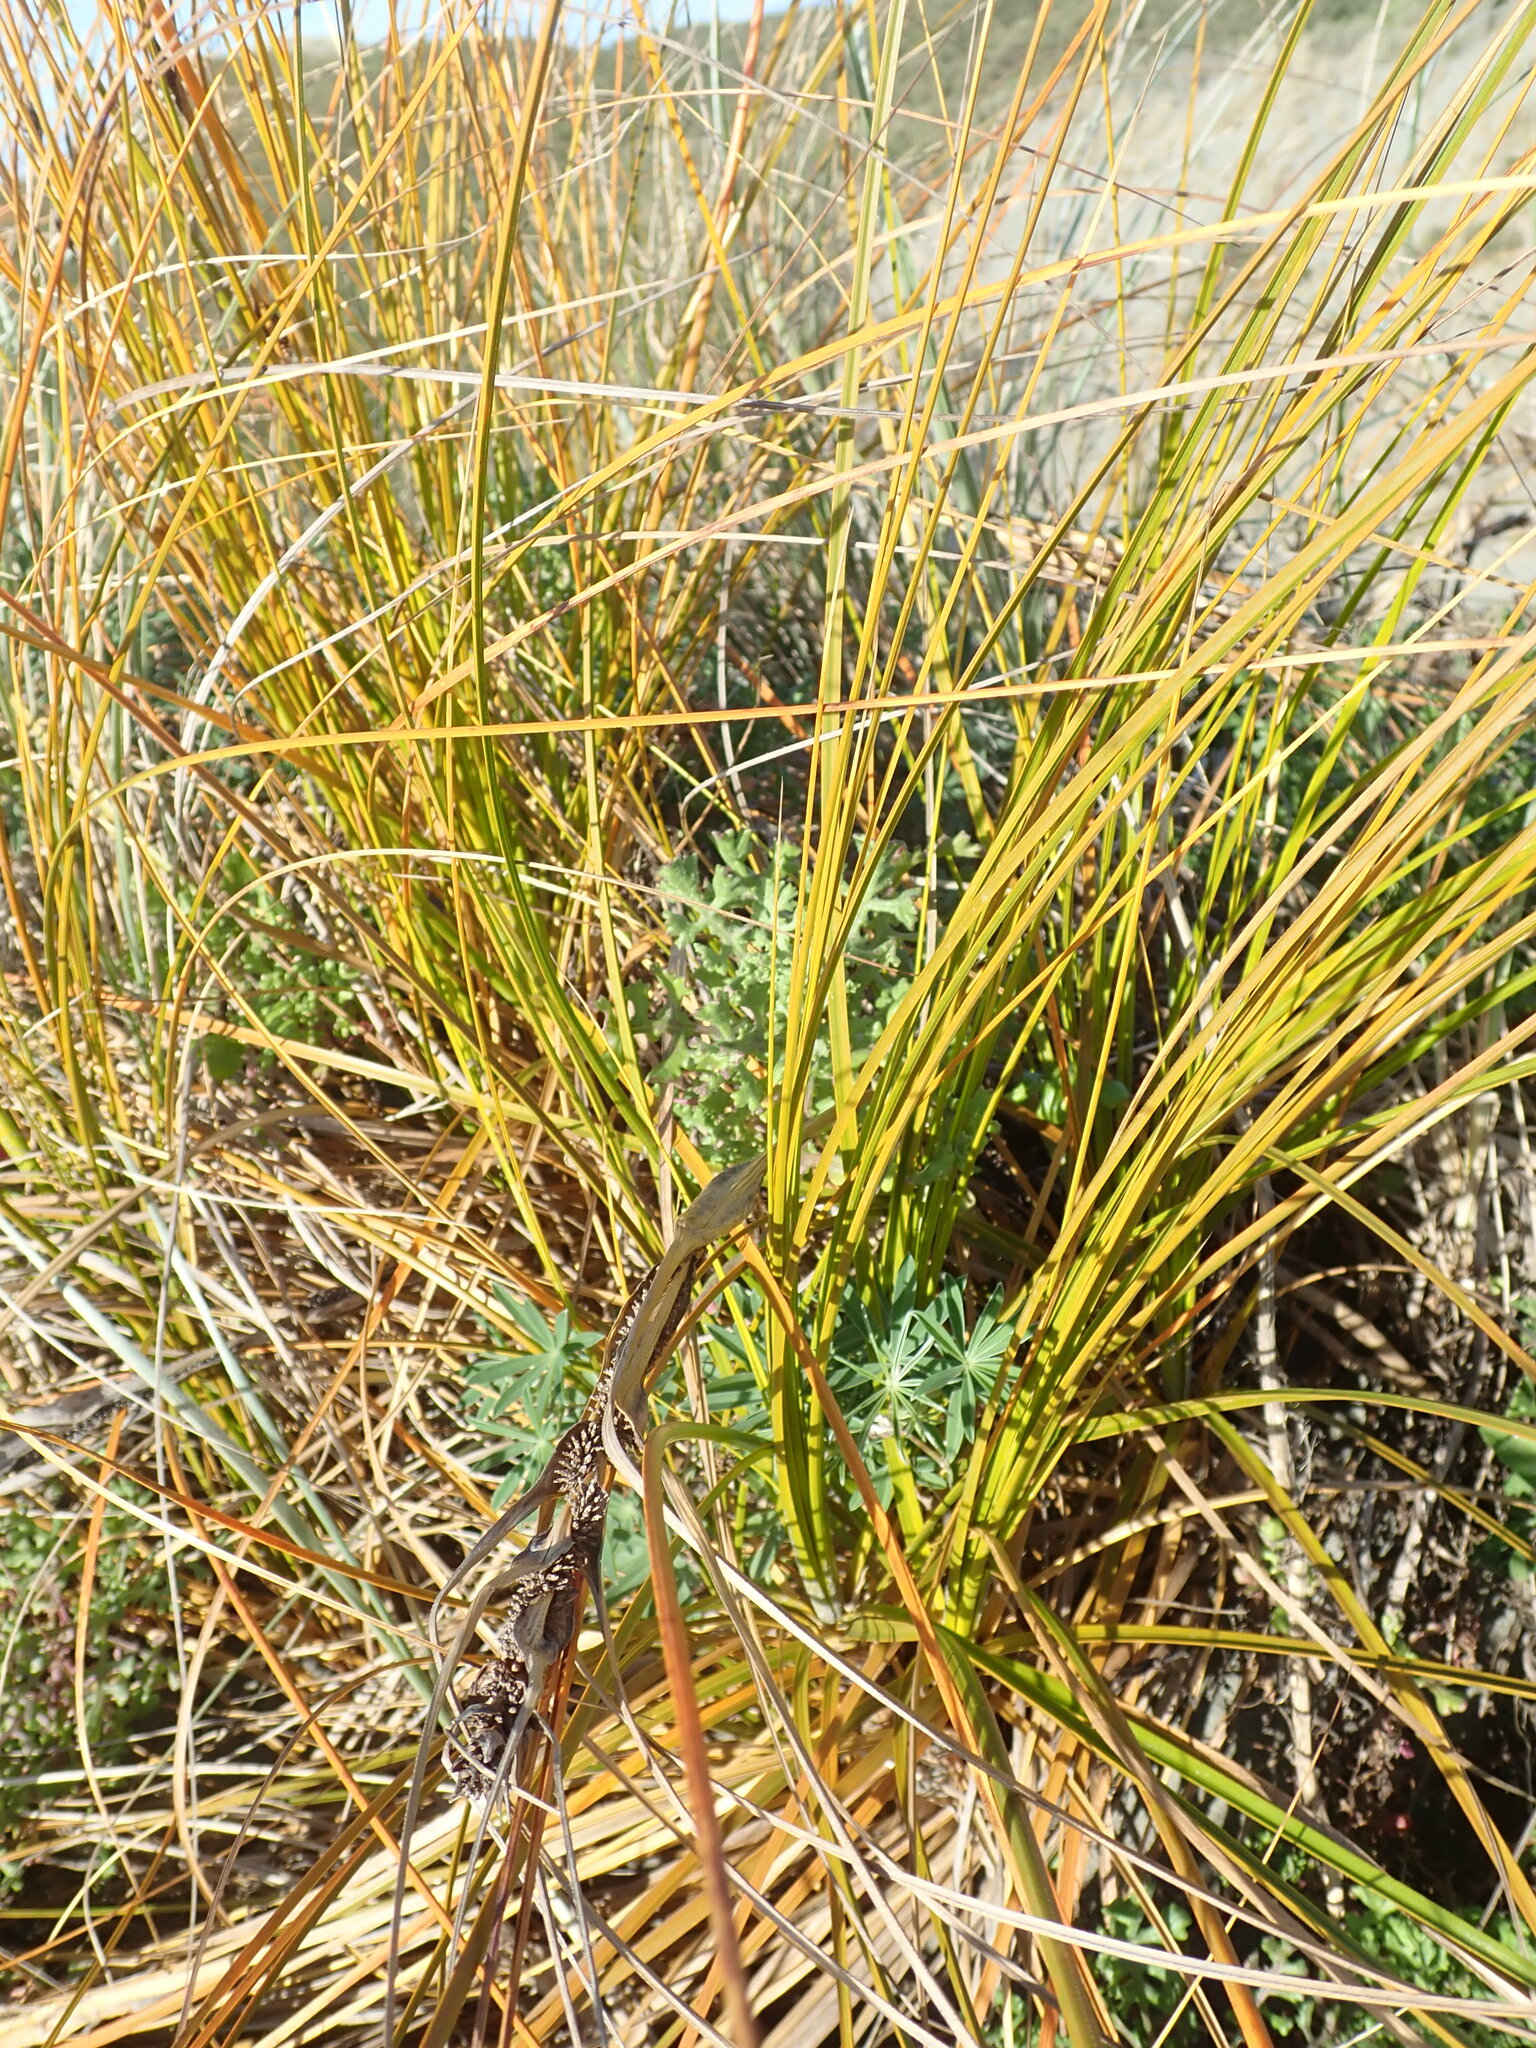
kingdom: Plantae
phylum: Tracheophyta
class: Liliopsida
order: Poales
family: Cyperaceae
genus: Ficinia
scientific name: Ficinia spiralis
